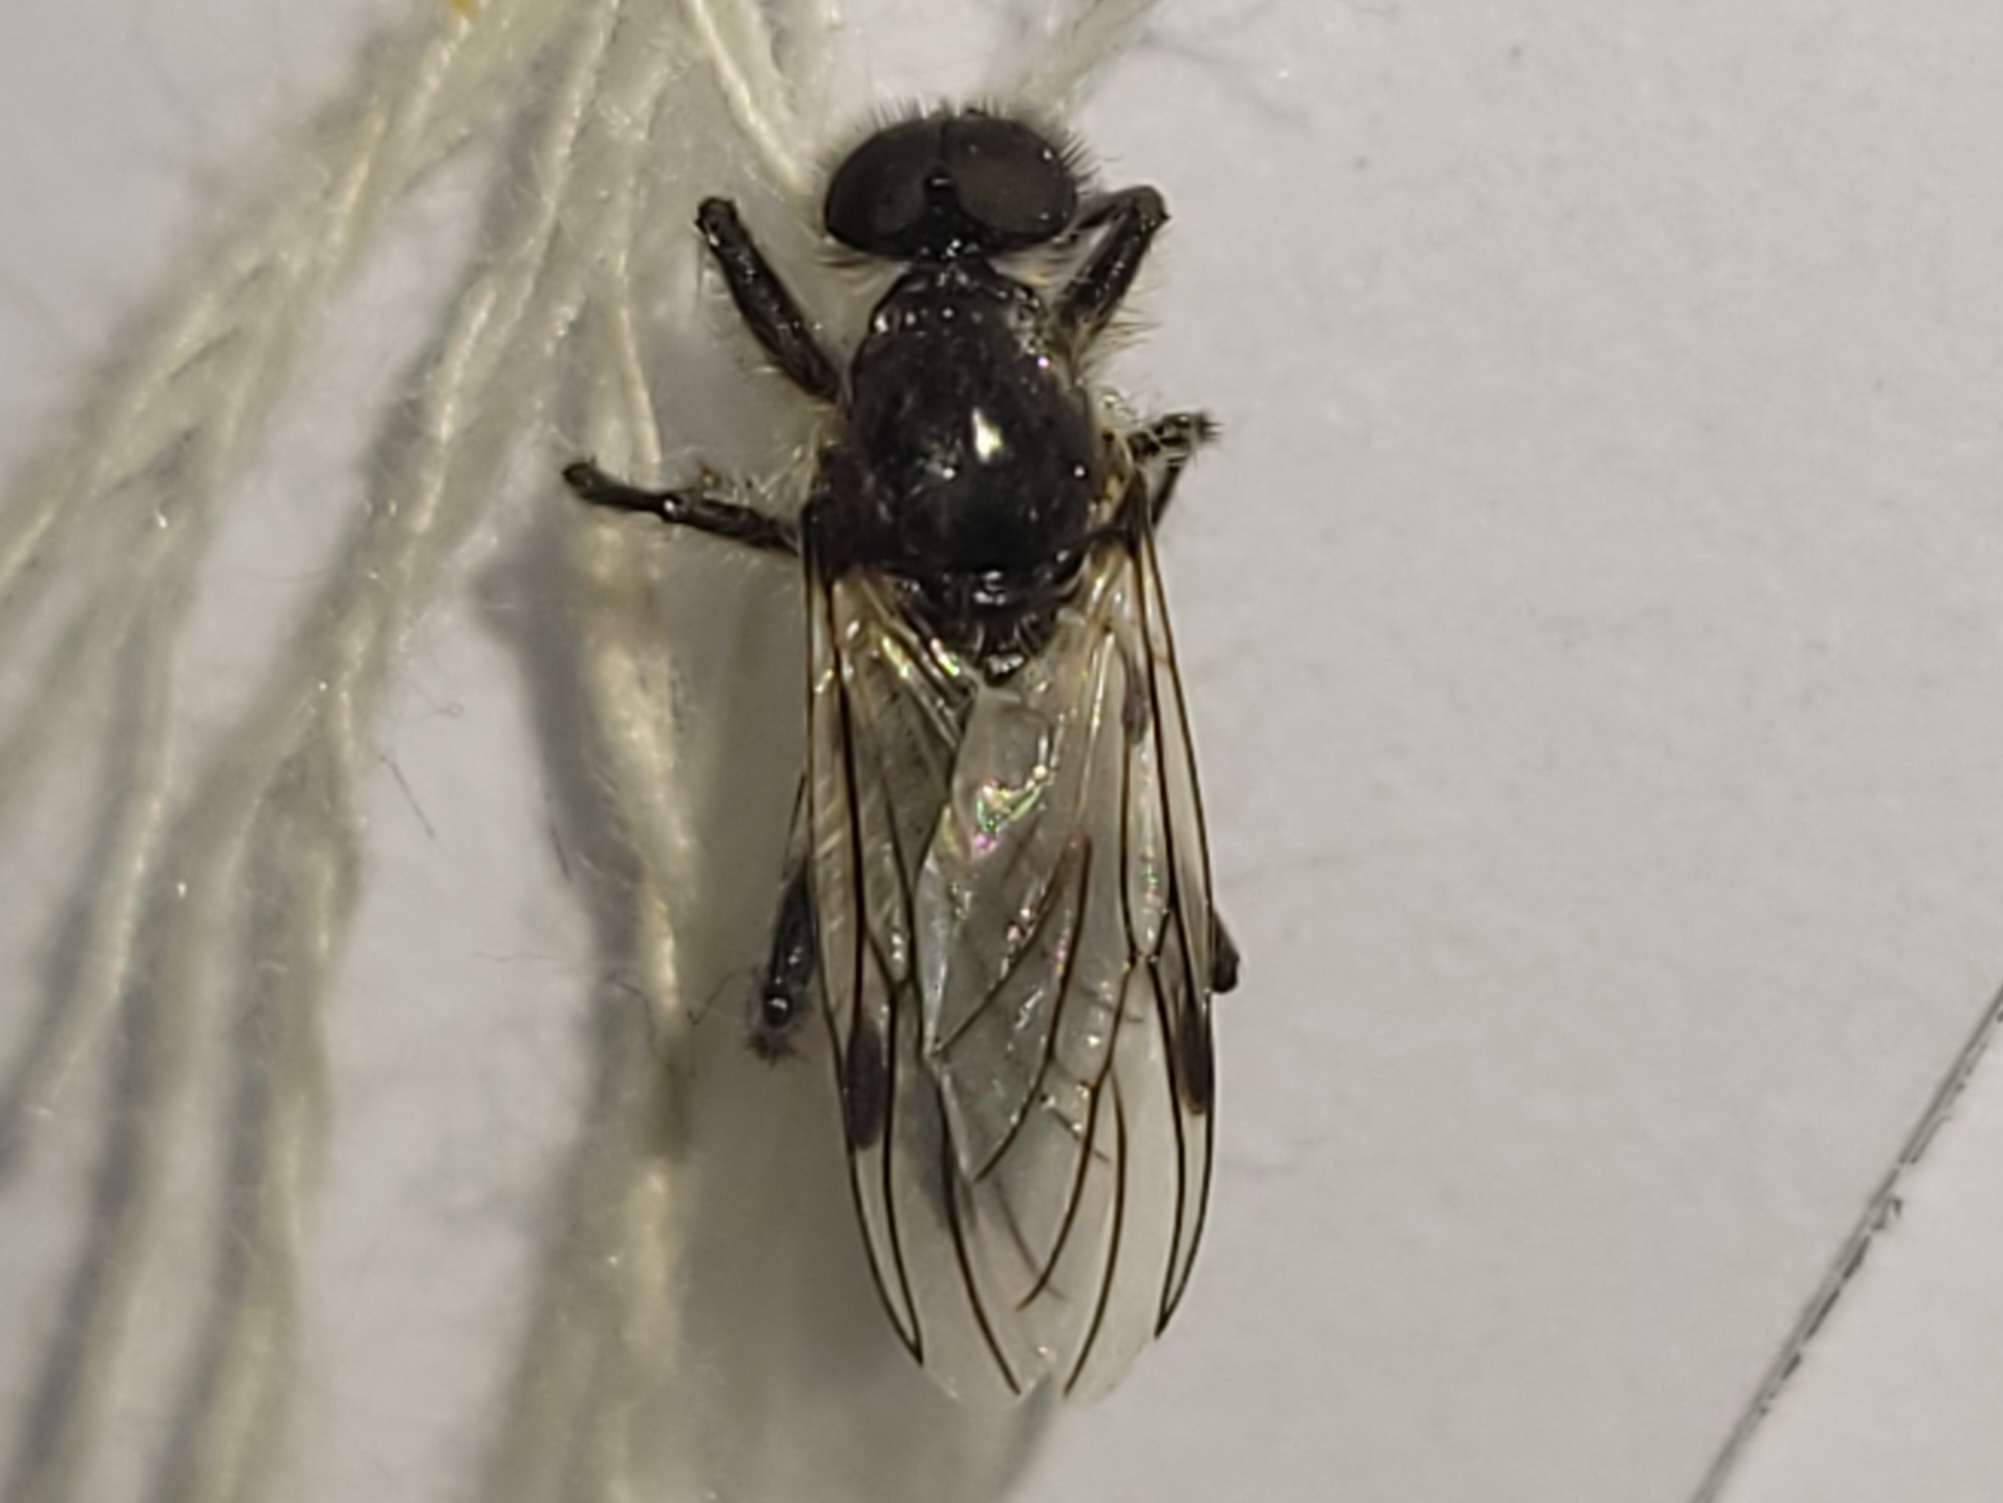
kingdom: Animalia
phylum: Arthropoda
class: Insecta
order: Diptera
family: Bibionidae
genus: Bibio
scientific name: Bibio albipennis
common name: White-winged march fly
